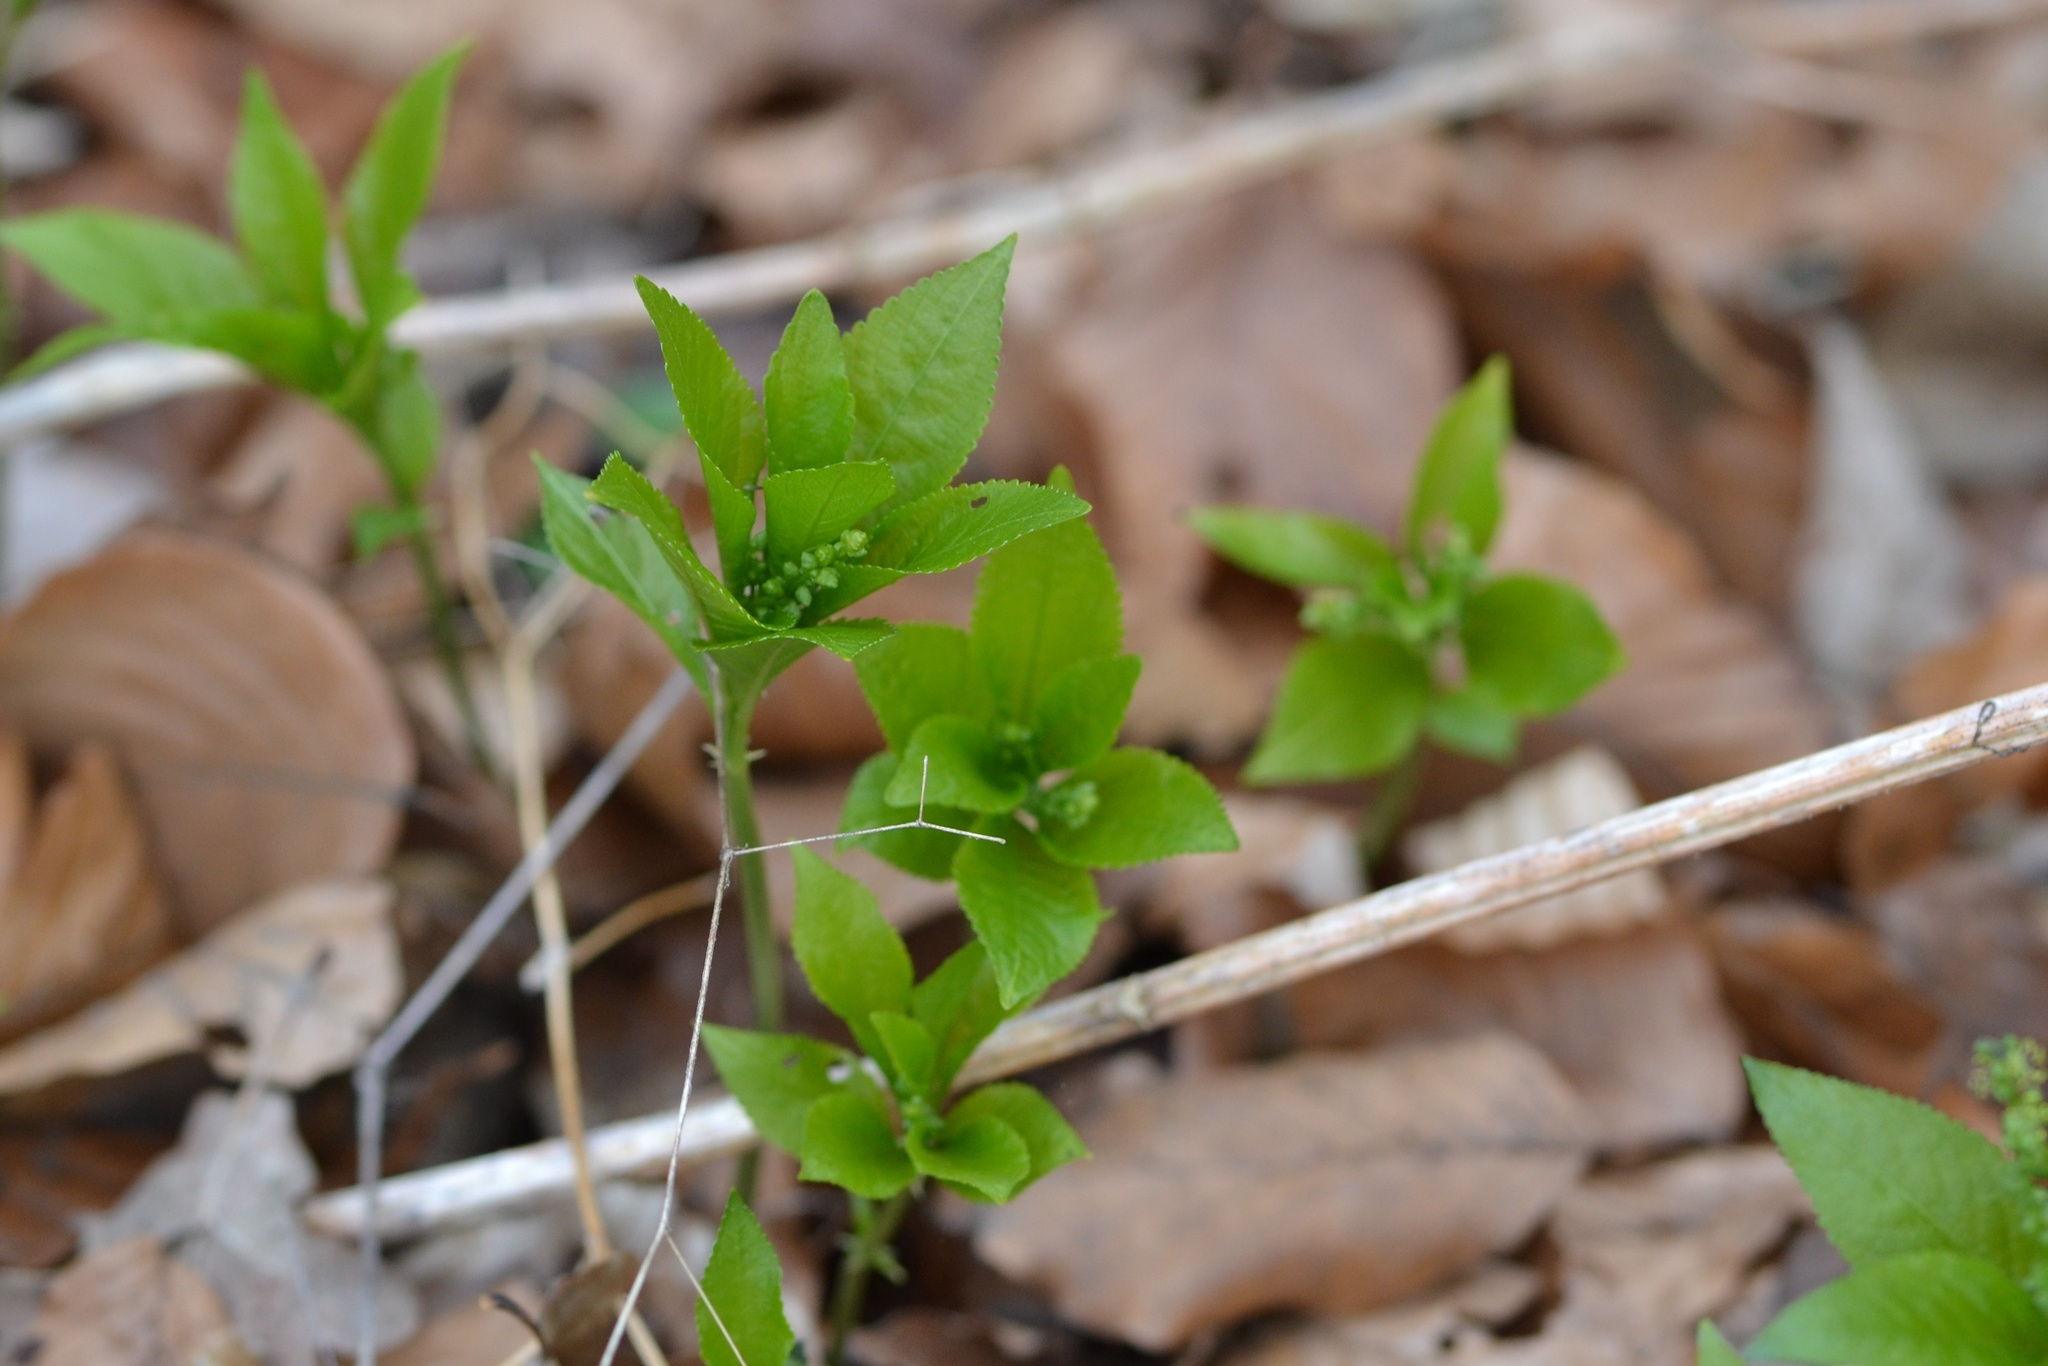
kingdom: Plantae
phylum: Tracheophyta
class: Magnoliopsida
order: Malpighiales
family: Euphorbiaceae
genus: Mercurialis
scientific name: Mercurialis perennis
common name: Dog mercury
